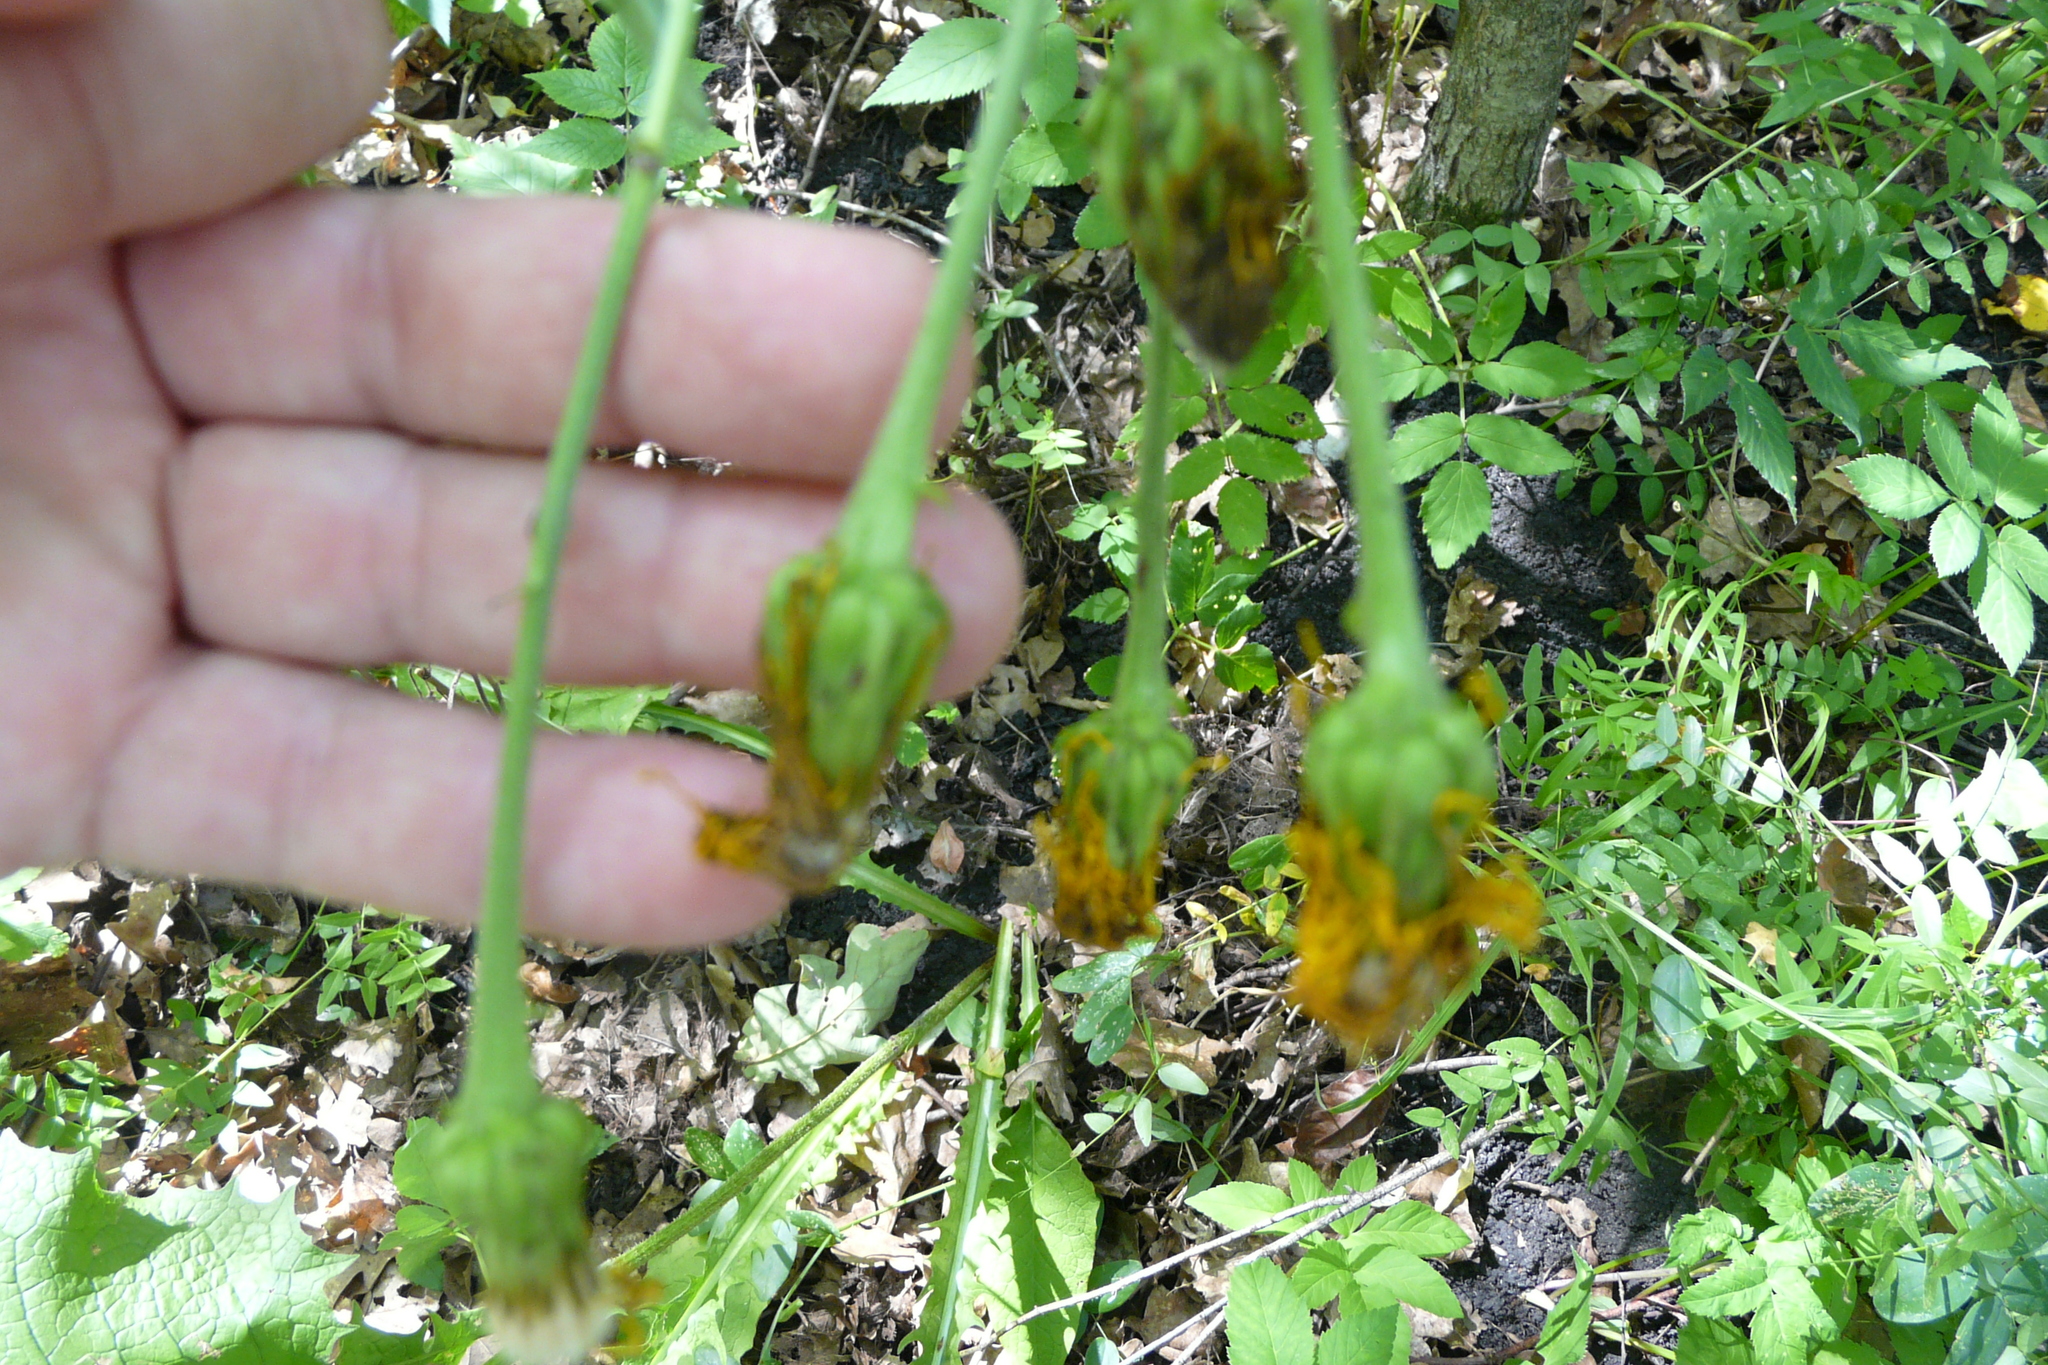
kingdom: Plantae
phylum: Tracheophyta
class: Magnoliopsida
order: Asterales
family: Asteraceae
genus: Crepis
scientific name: Crepis sibirica
